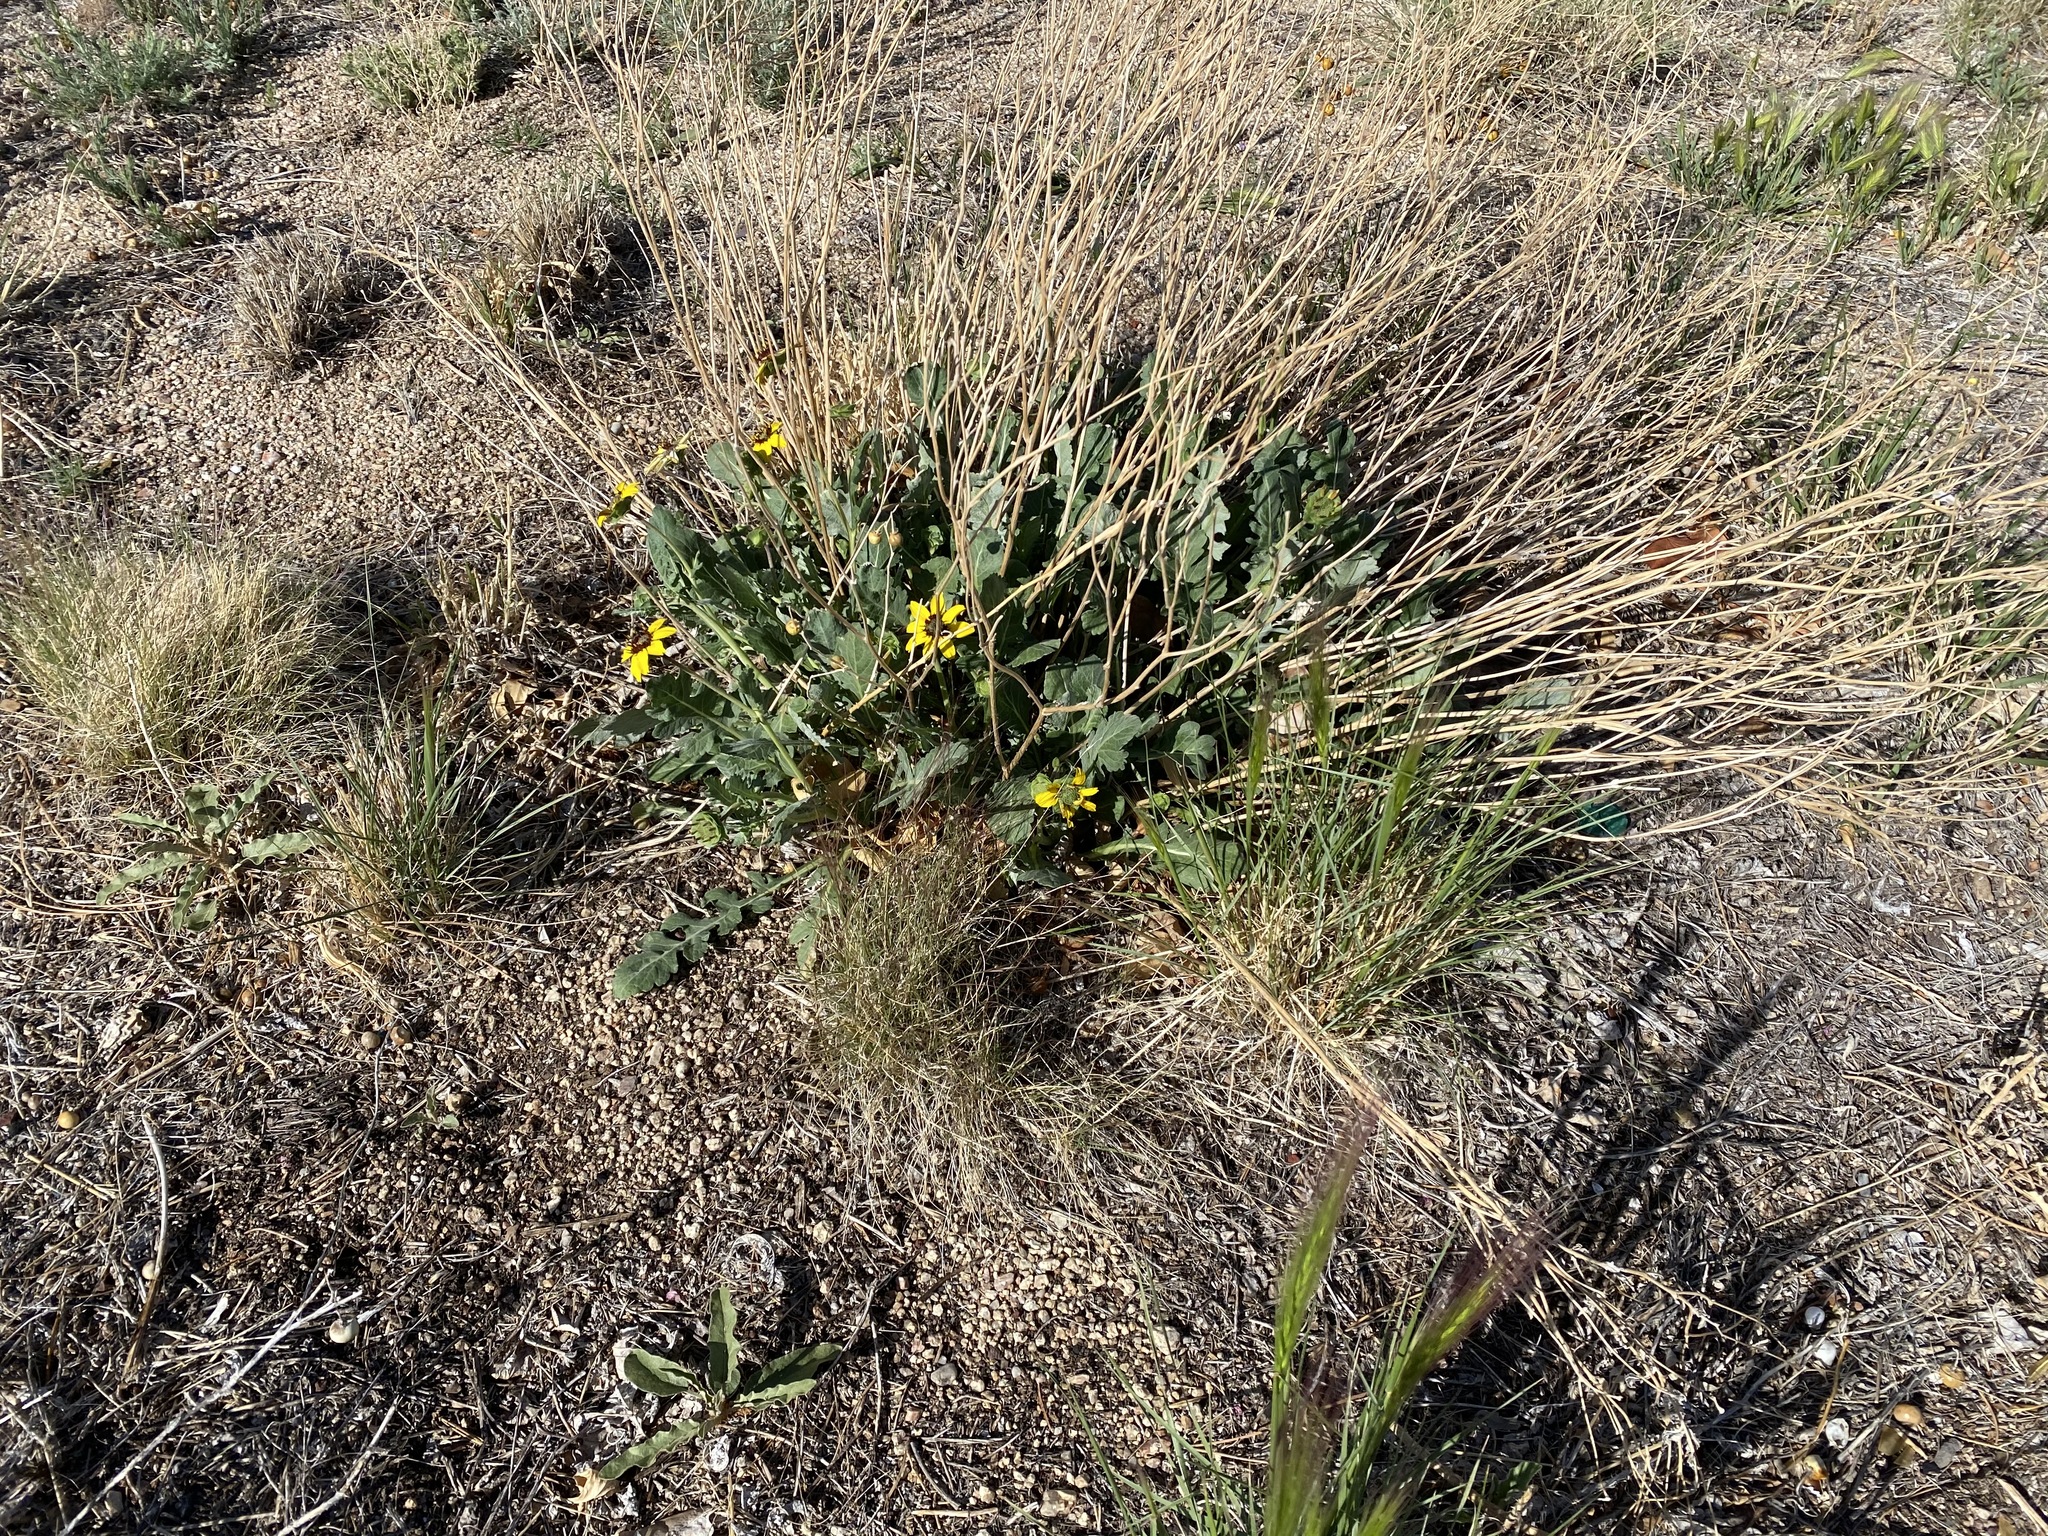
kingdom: Plantae
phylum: Tracheophyta
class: Magnoliopsida
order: Asterales
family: Asteraceae
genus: Berlandiera
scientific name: Berlandiera lyrata
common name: Chocolate-flower
